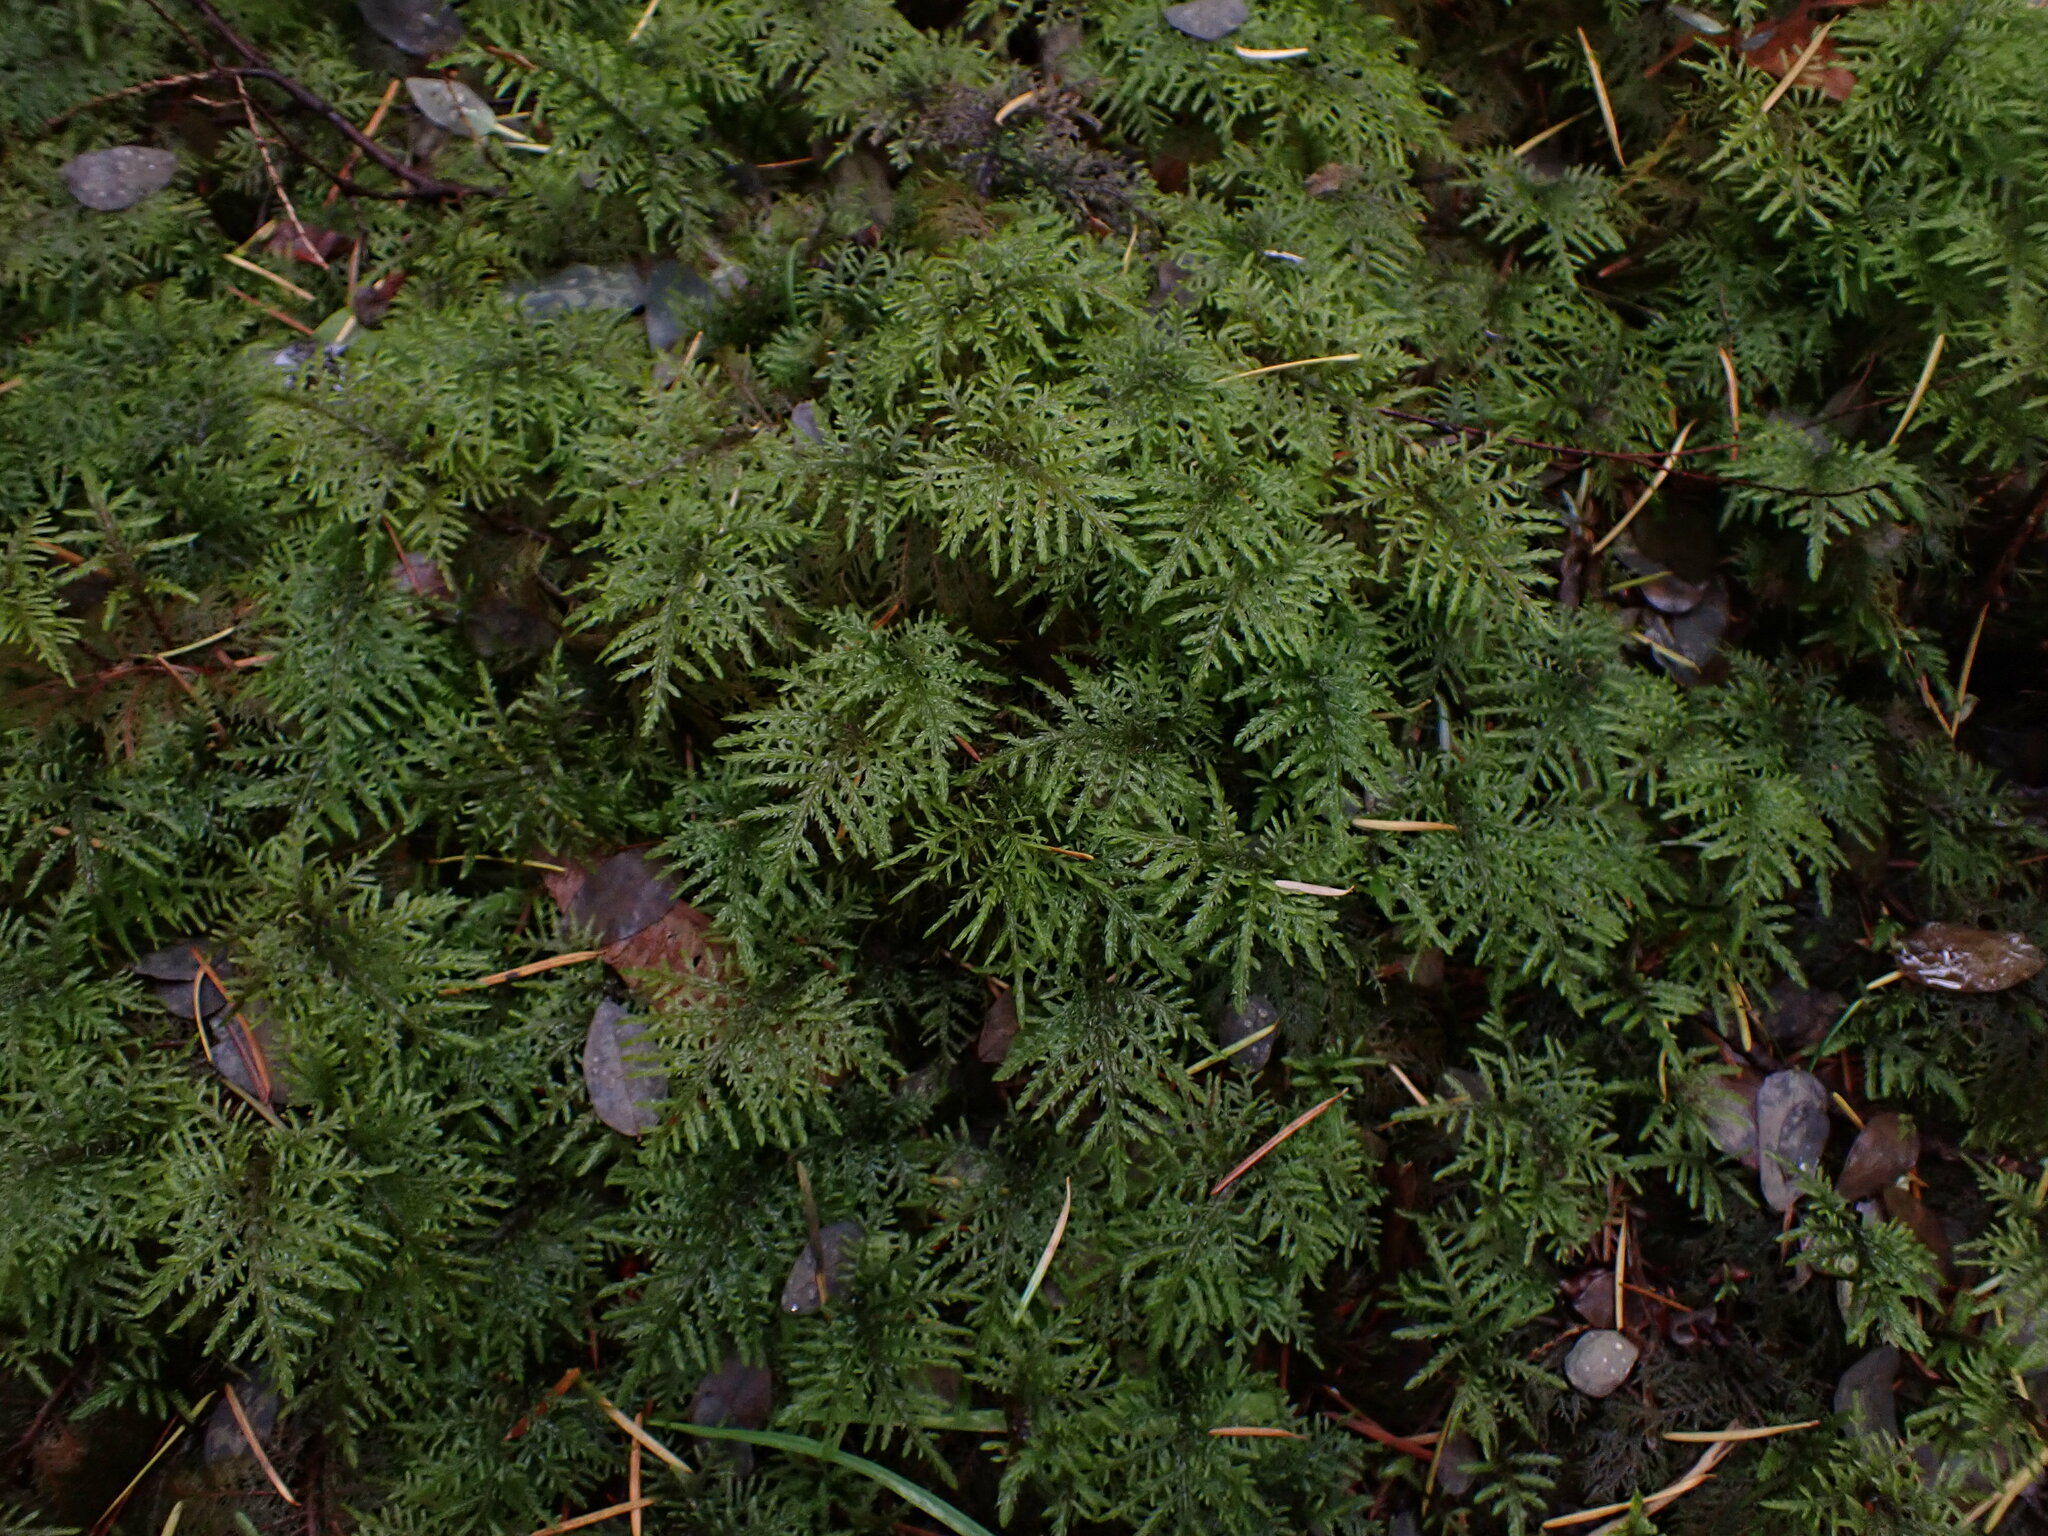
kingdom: Plantae
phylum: Bryophyta
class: Bryopsida
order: Hypnales
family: Hylocomiaceae
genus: Hylocomium
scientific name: Hylocomium splendens
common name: Stairstep moss
